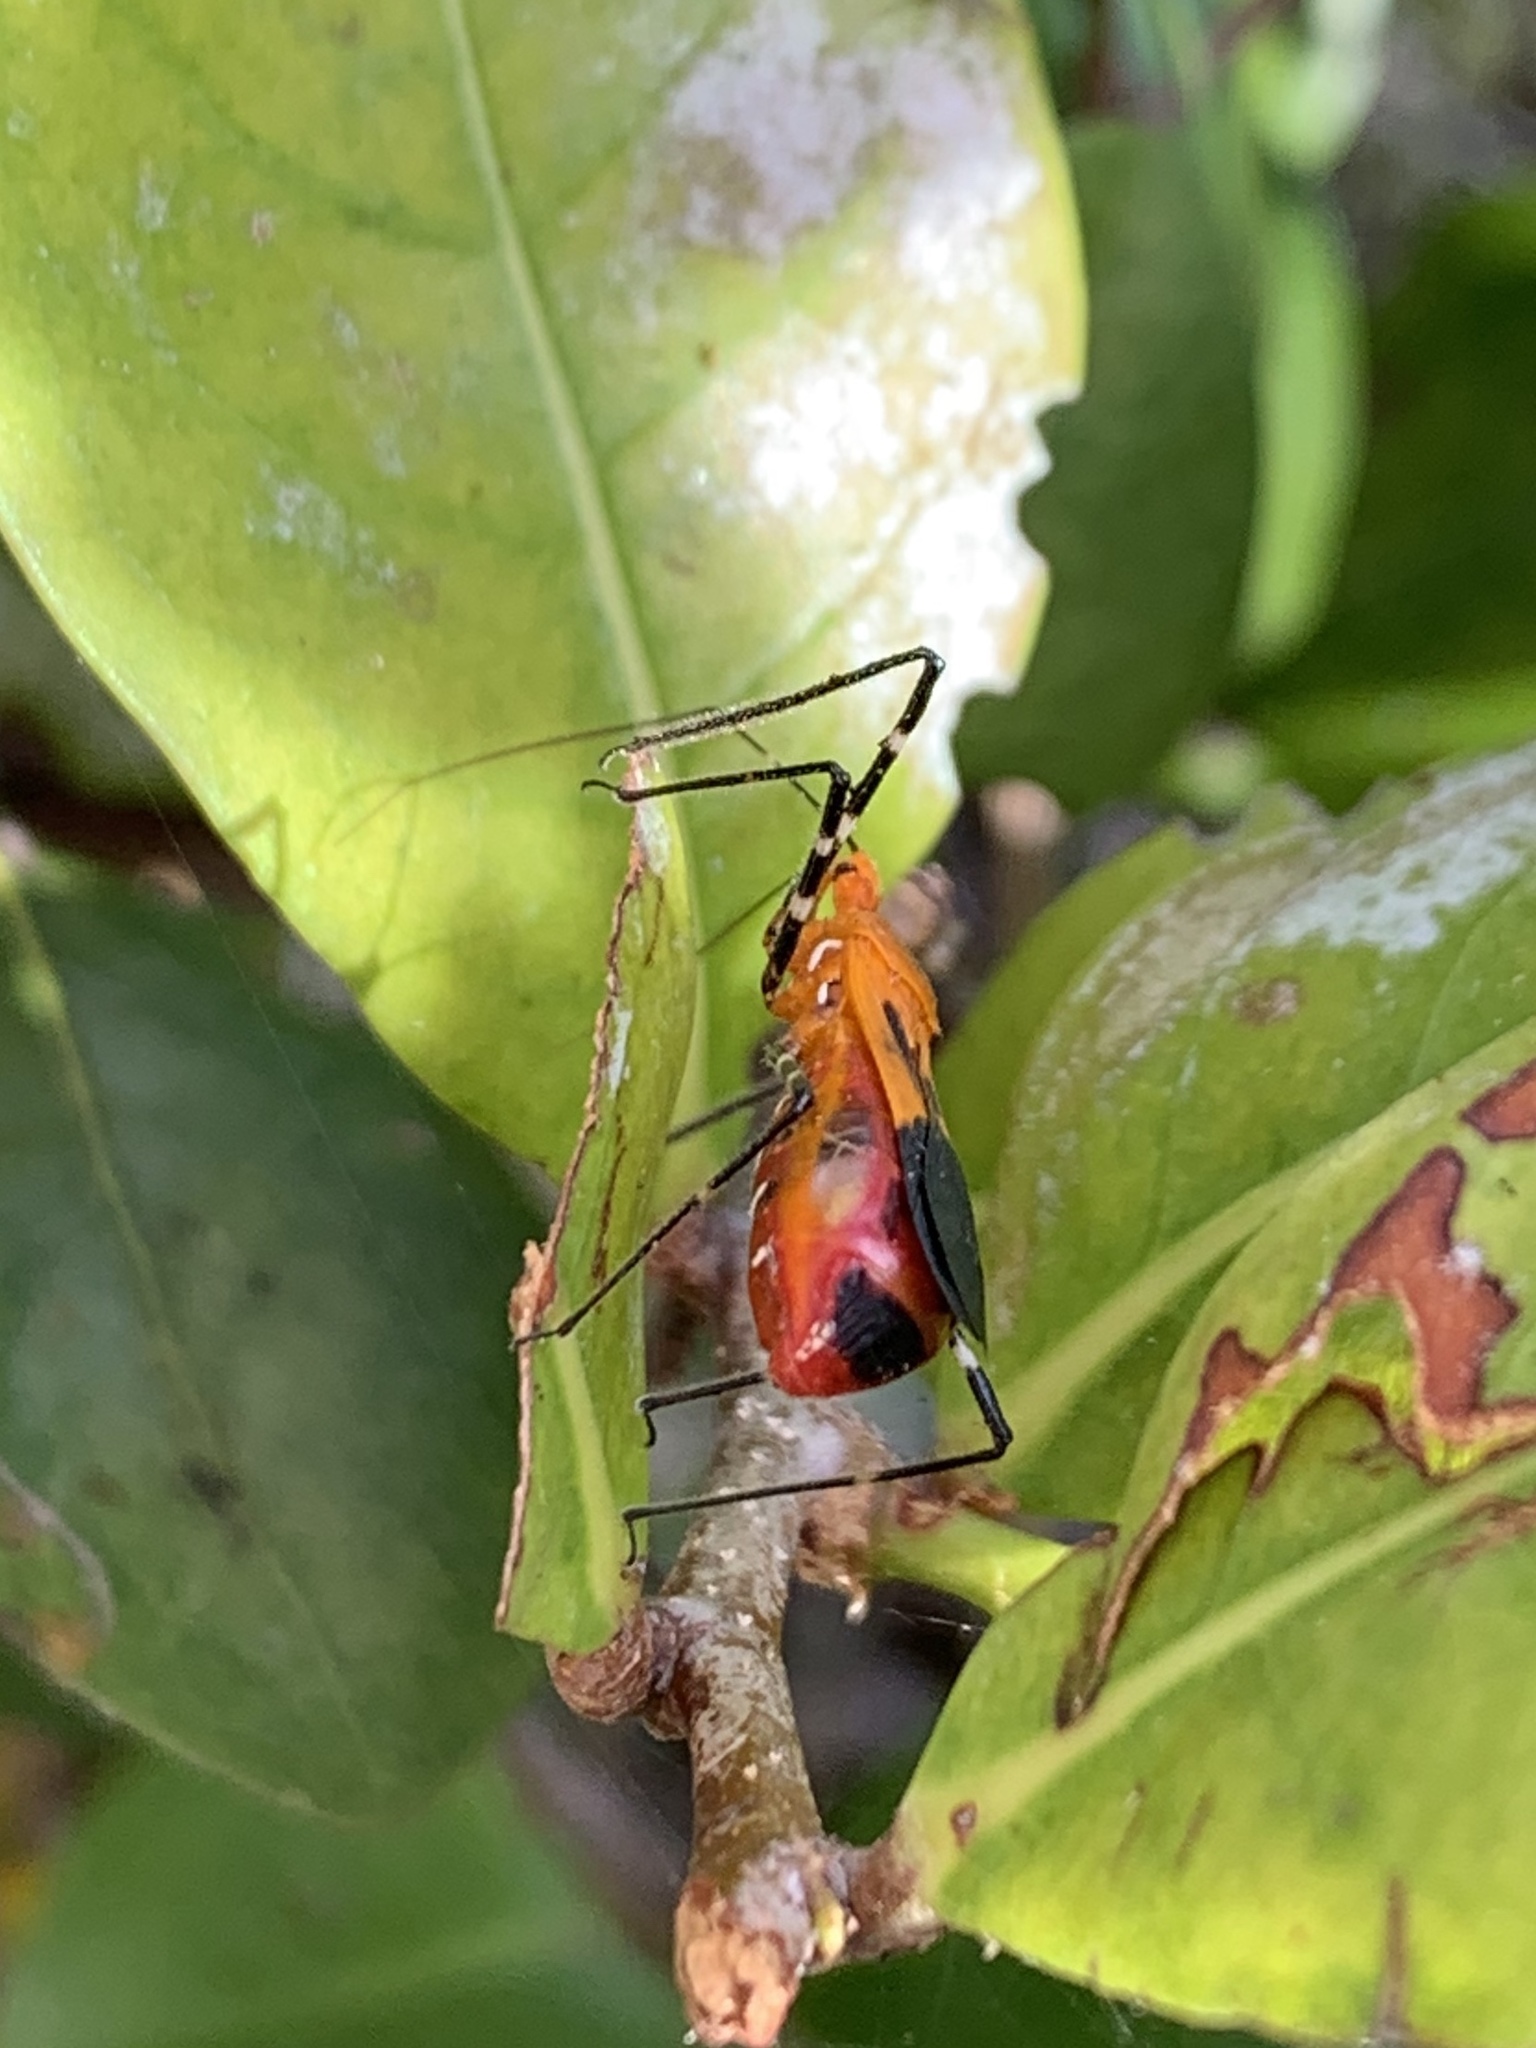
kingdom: Animalia
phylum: Arthropoda
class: Insecta
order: Hemiptera
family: Reduviidae
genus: Zelus
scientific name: Zelus longipes
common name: Milkweed assassin bug
